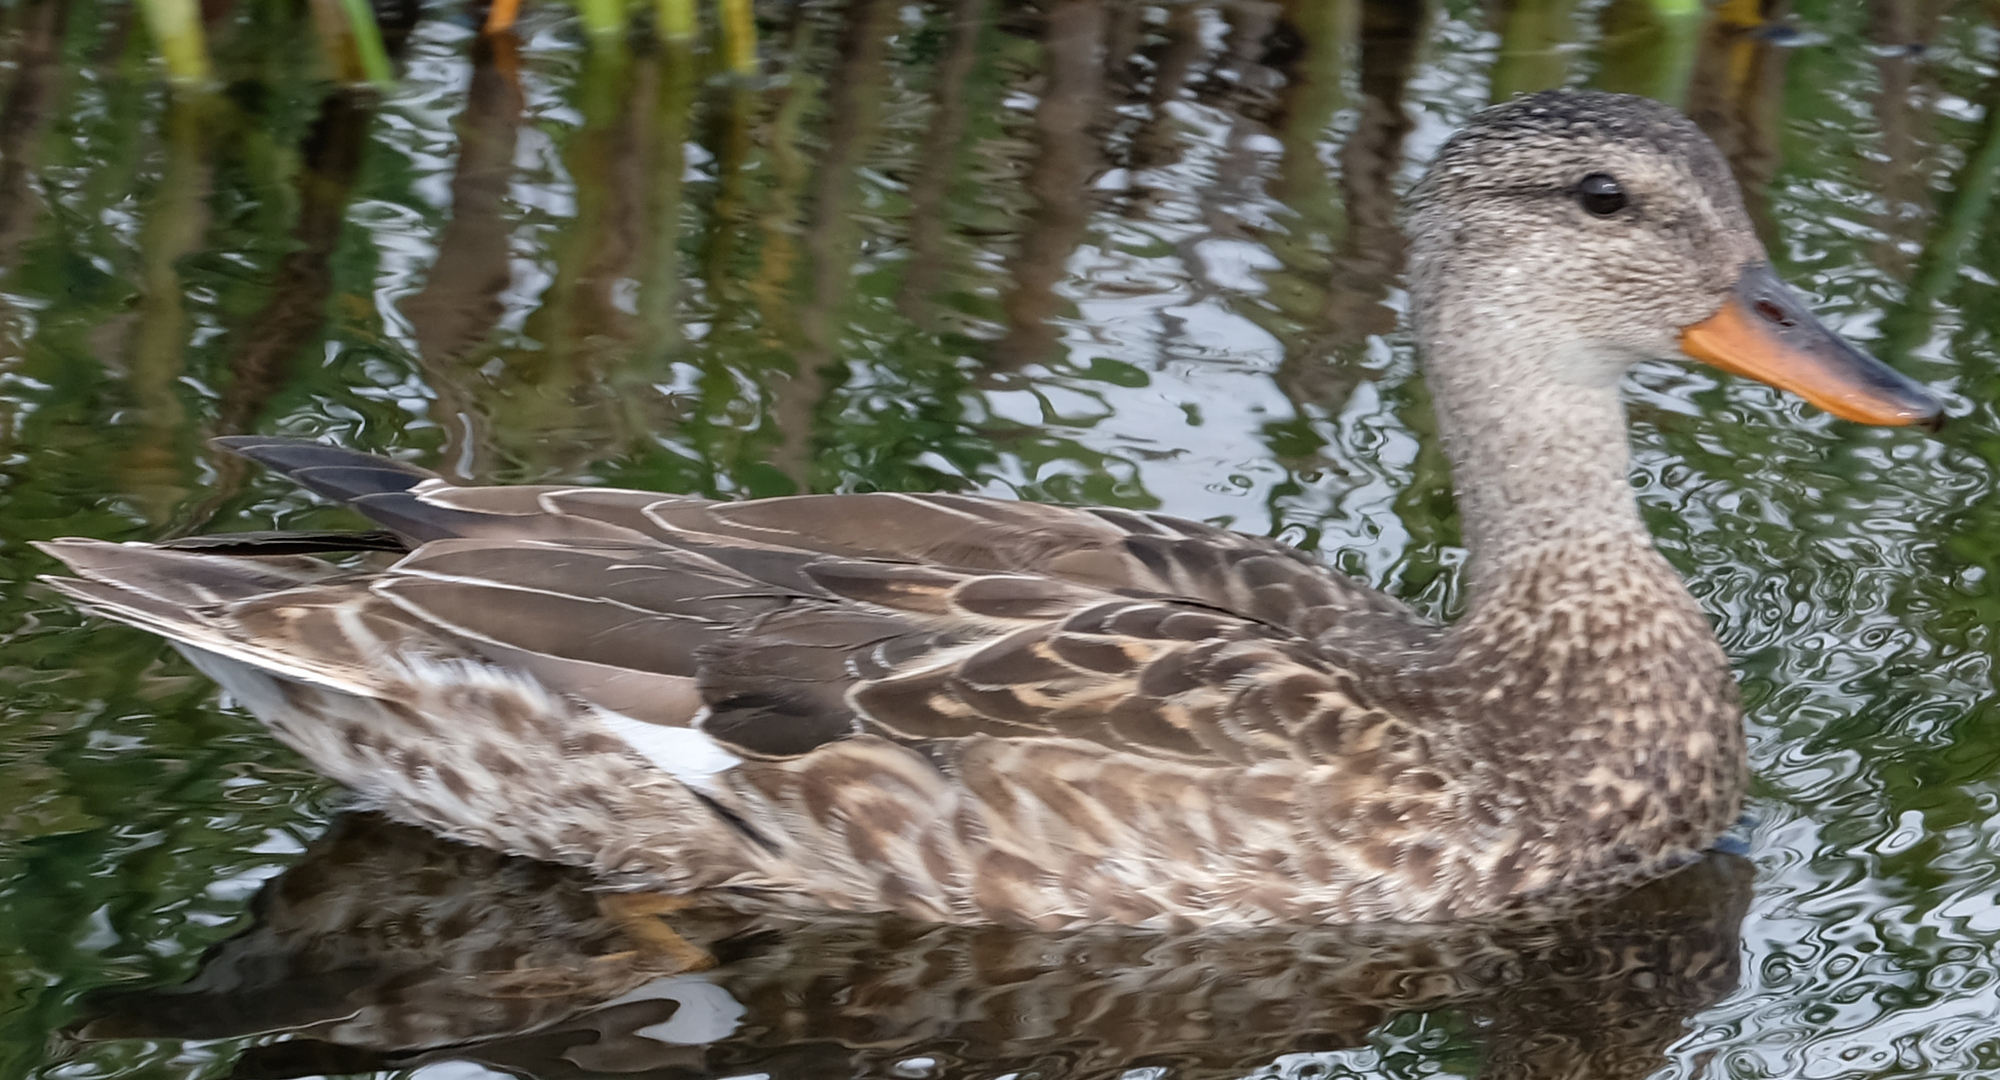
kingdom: Animalia
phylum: Chordata
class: Aves
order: Anseriformes
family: Anatidae
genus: Mareca
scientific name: Mareca strepera
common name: Gadwall
